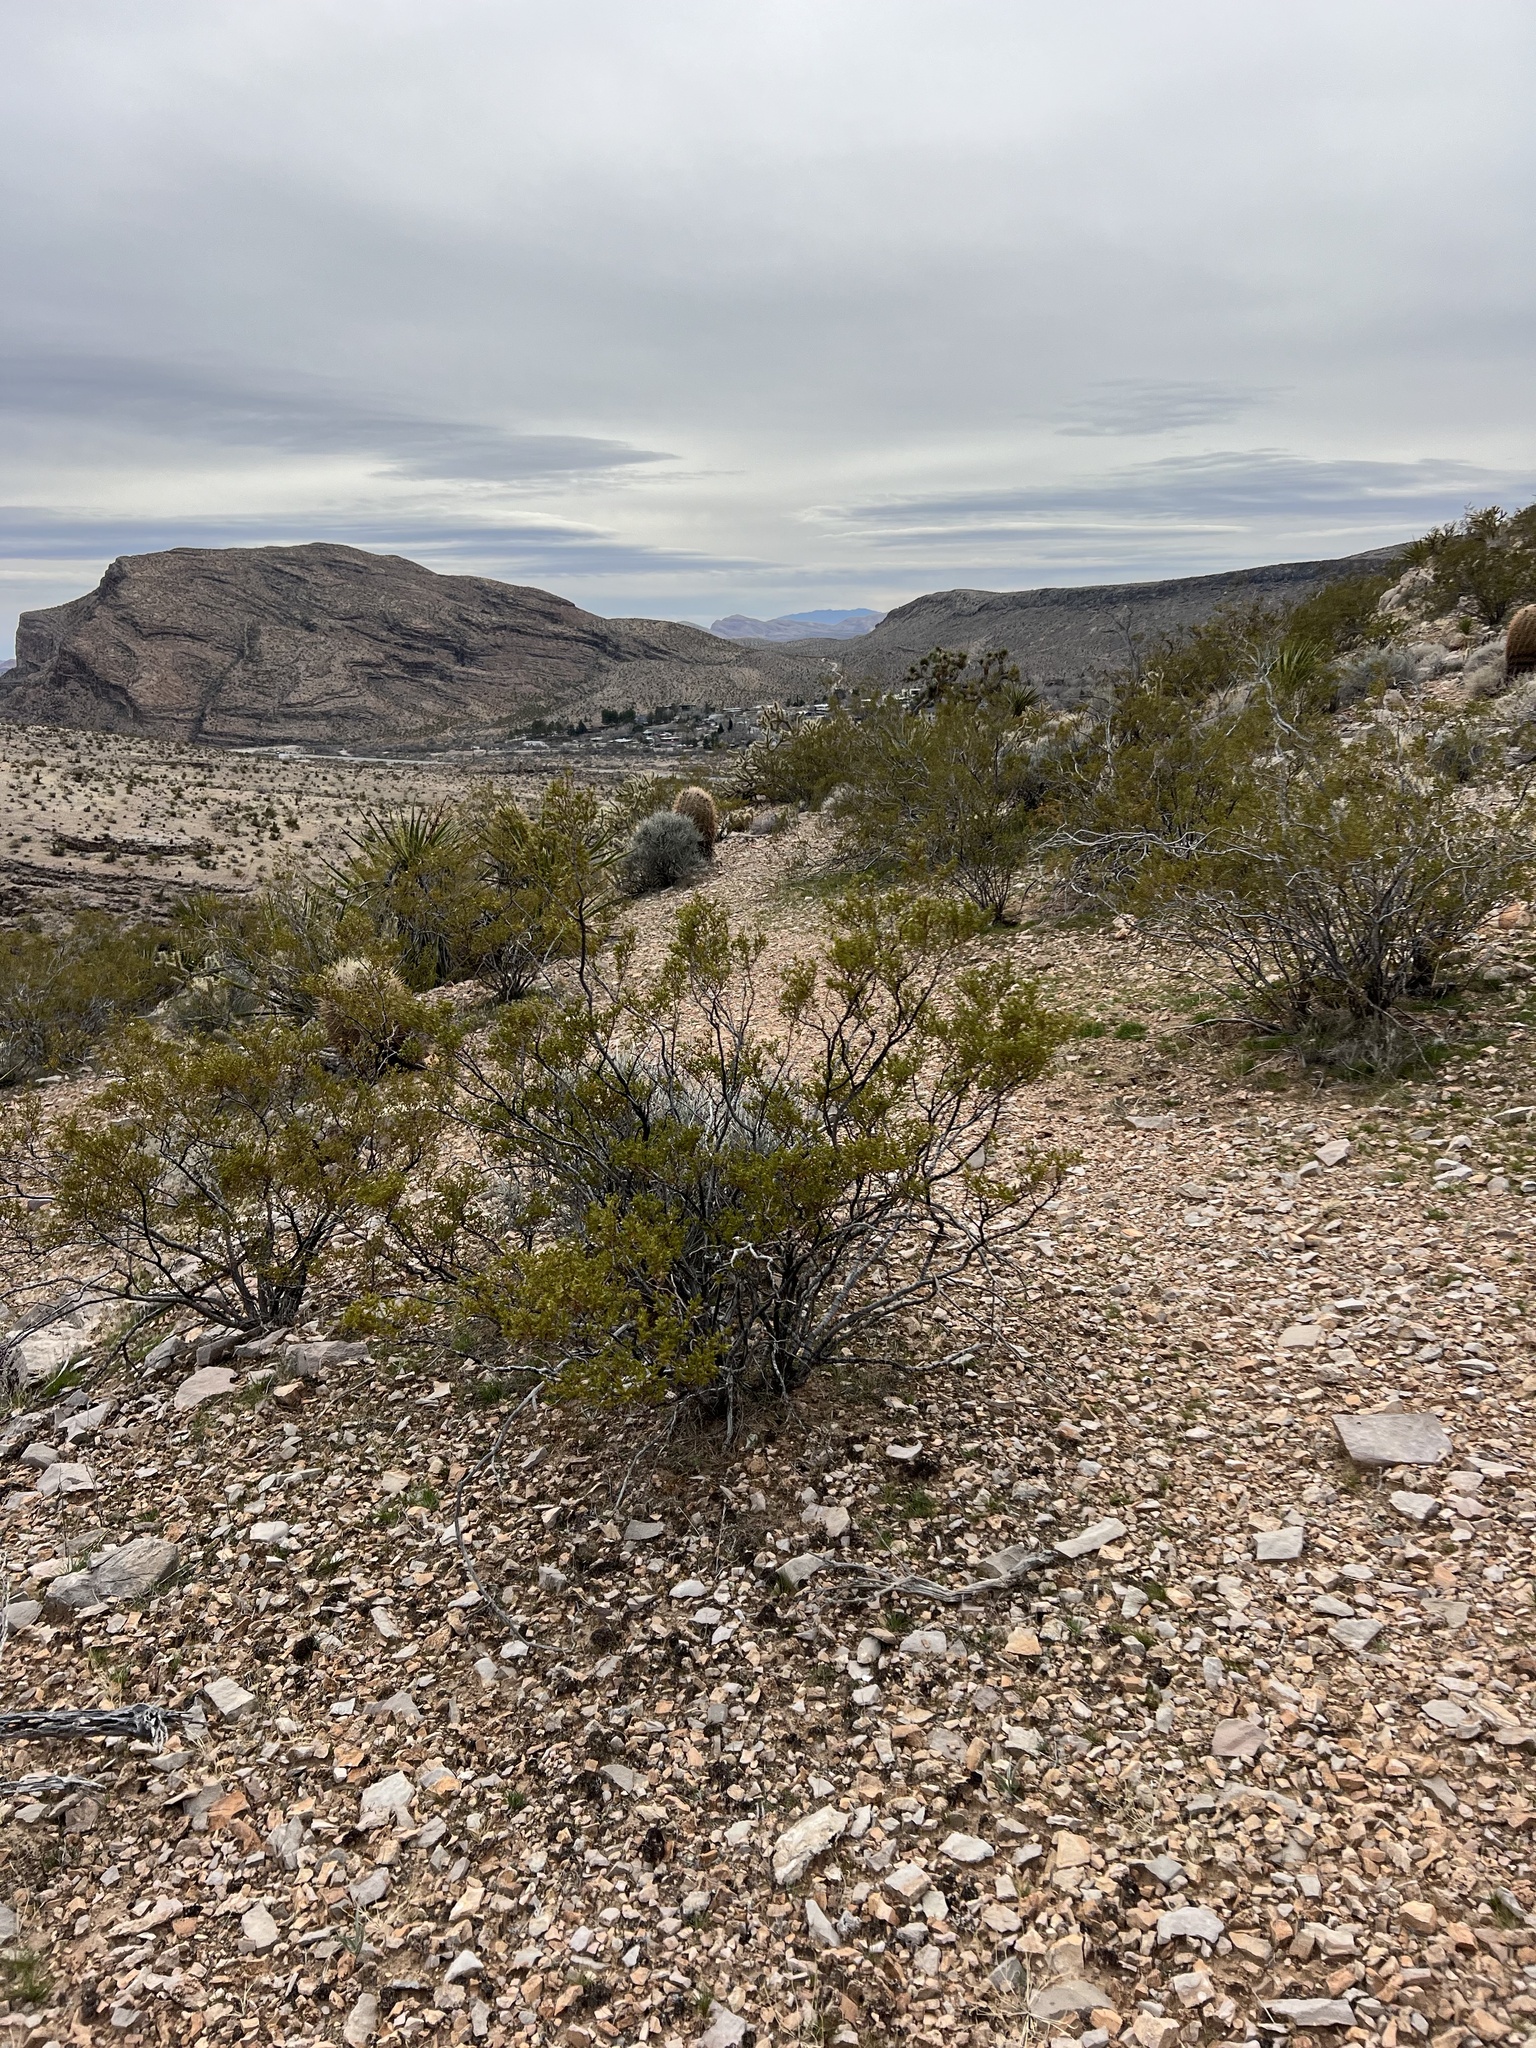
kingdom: Plantae
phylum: Tracheophyta
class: Magnoliopsida
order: Zygophyllales
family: Zygophyllaceae
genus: Larrea
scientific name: Larrea tridentata
